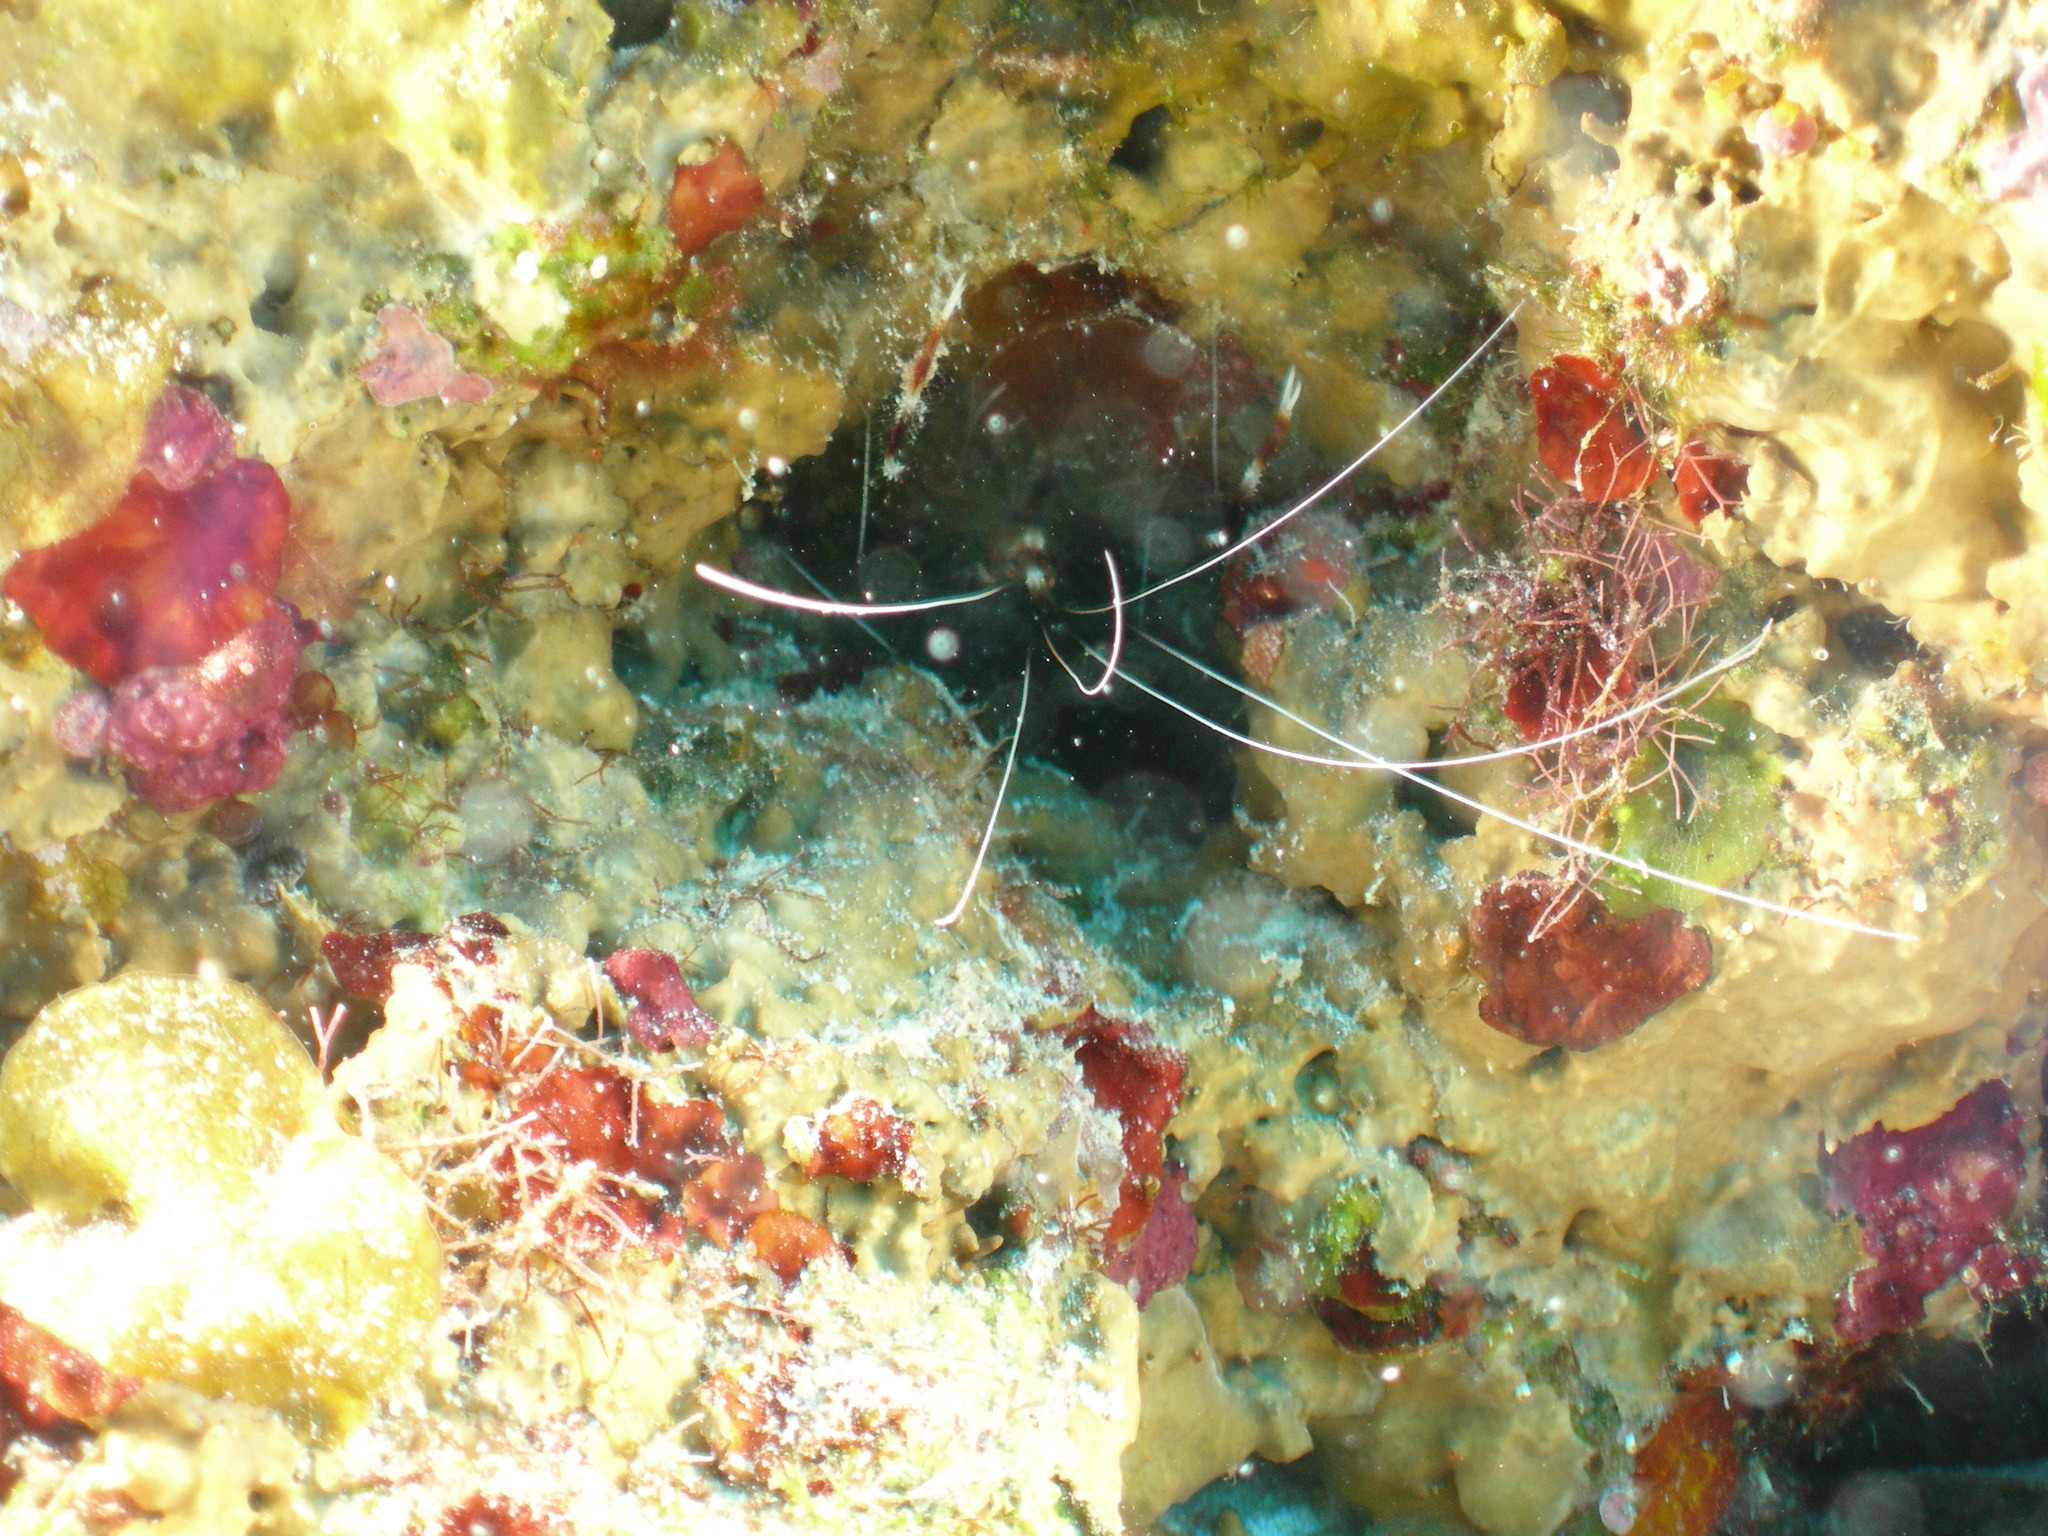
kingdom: Animalia
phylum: Arthropoda
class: Malacostraca
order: Decapoda
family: Stenopodidae
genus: Stenopus
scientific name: Stenopus hispidus
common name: Banded coral shrimp
